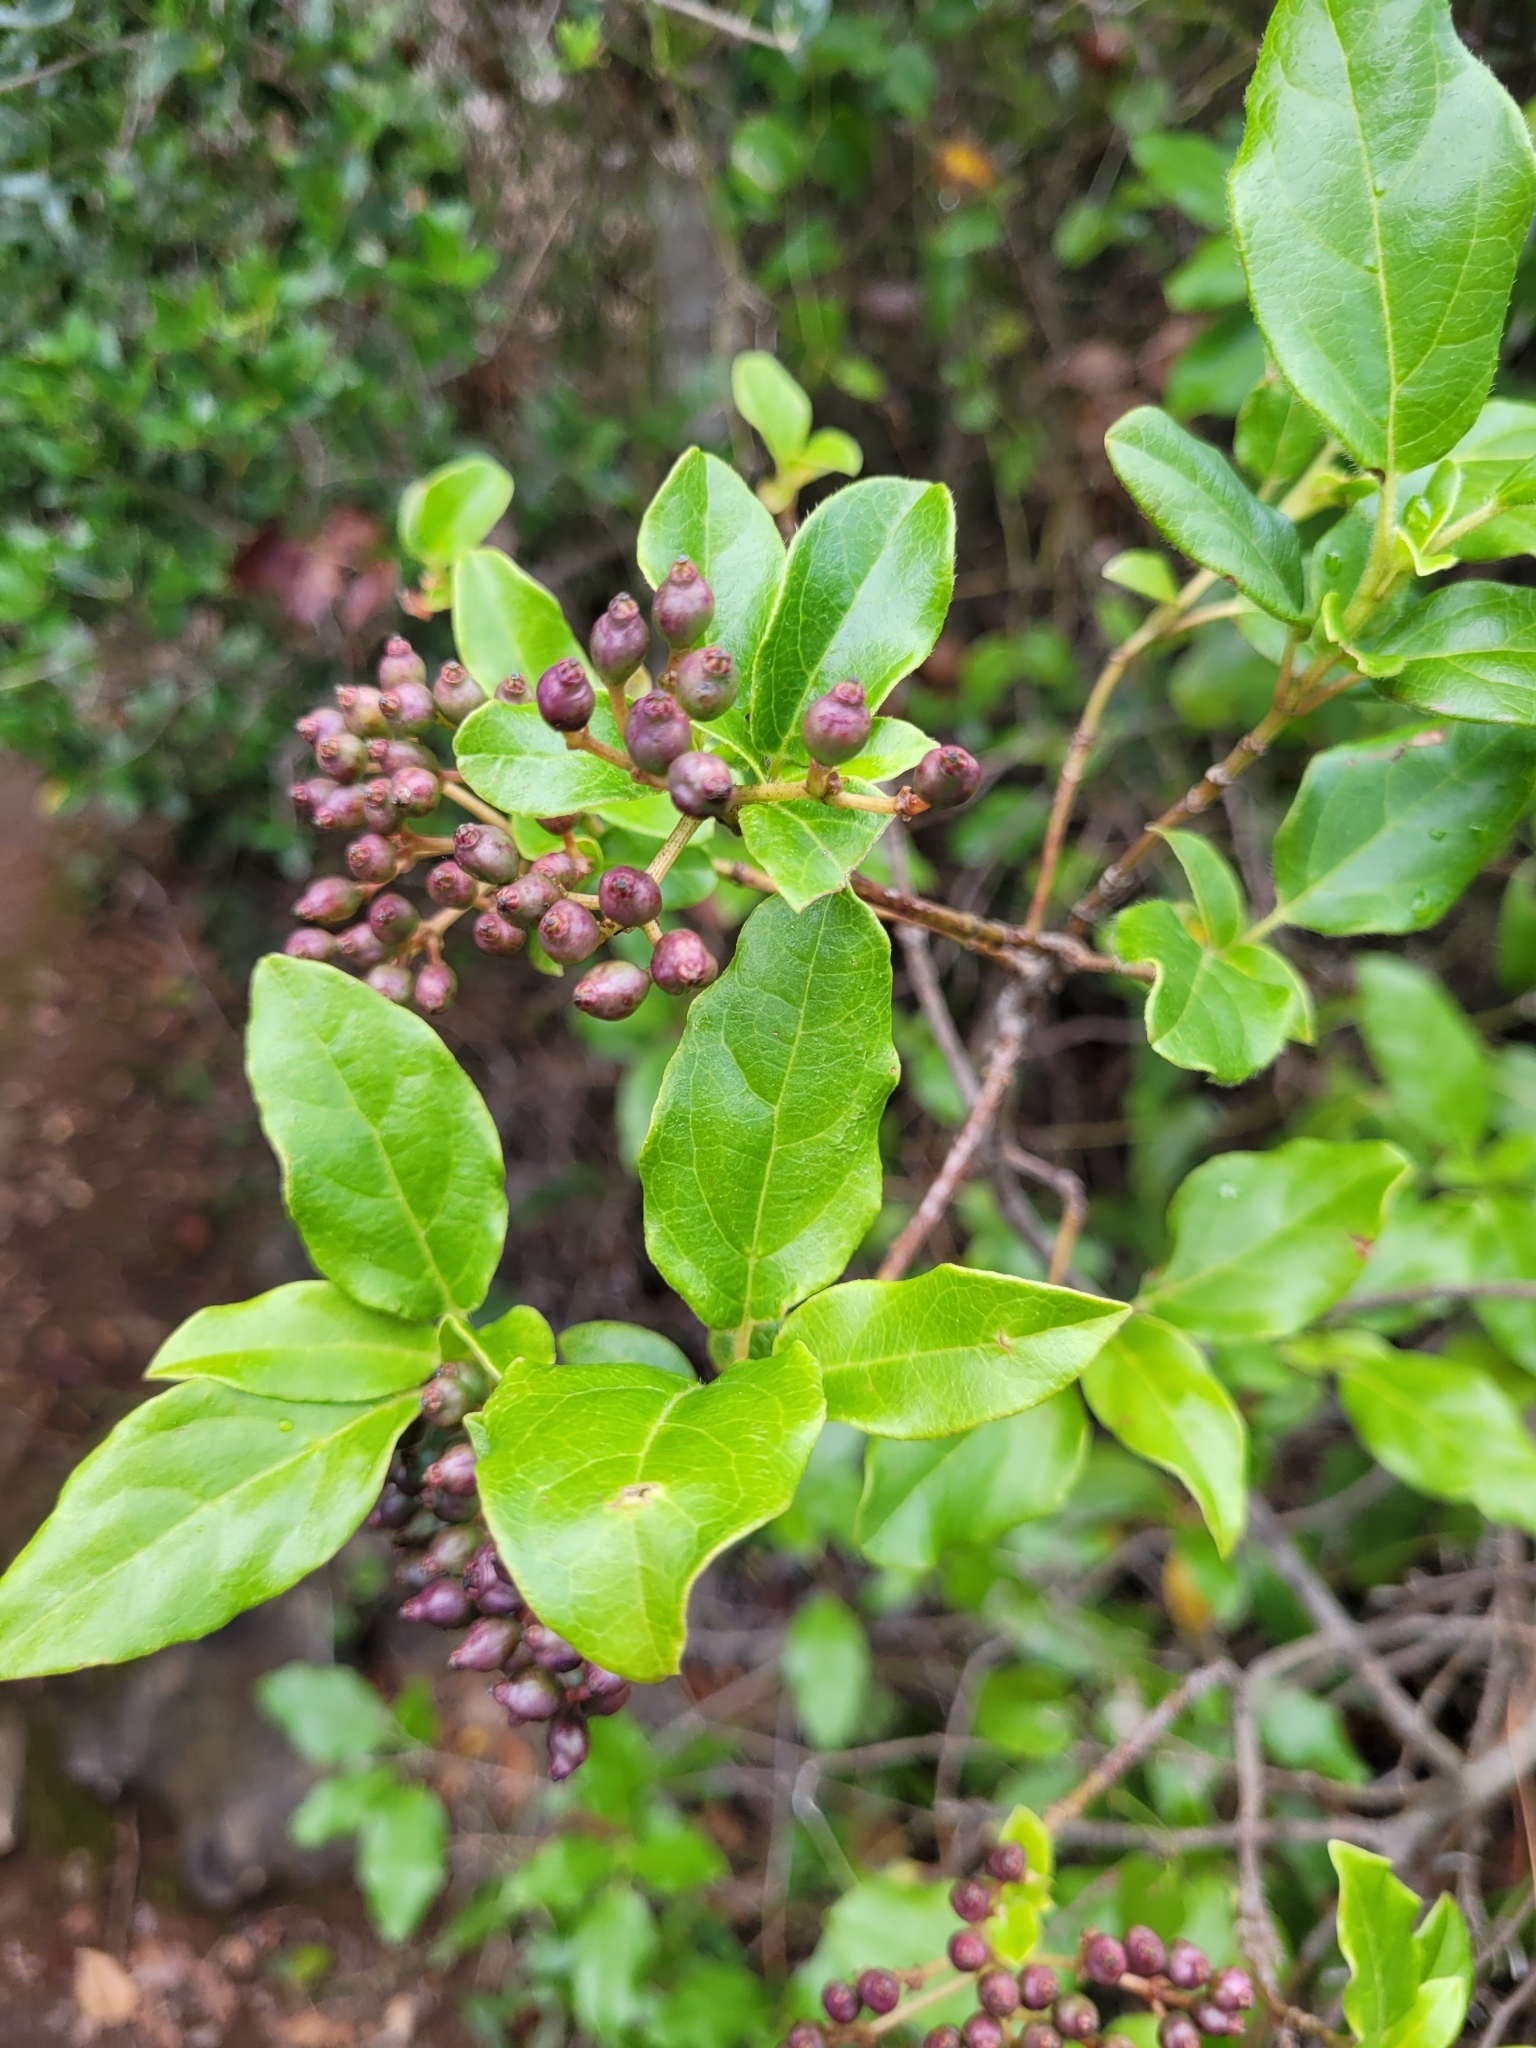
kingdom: Plantae
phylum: Tracheophyta
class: Magnoliopsida
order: Dipsacales
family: Viburnaceae
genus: Viburnum
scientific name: Viburnum tinus
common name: Laurustinus
